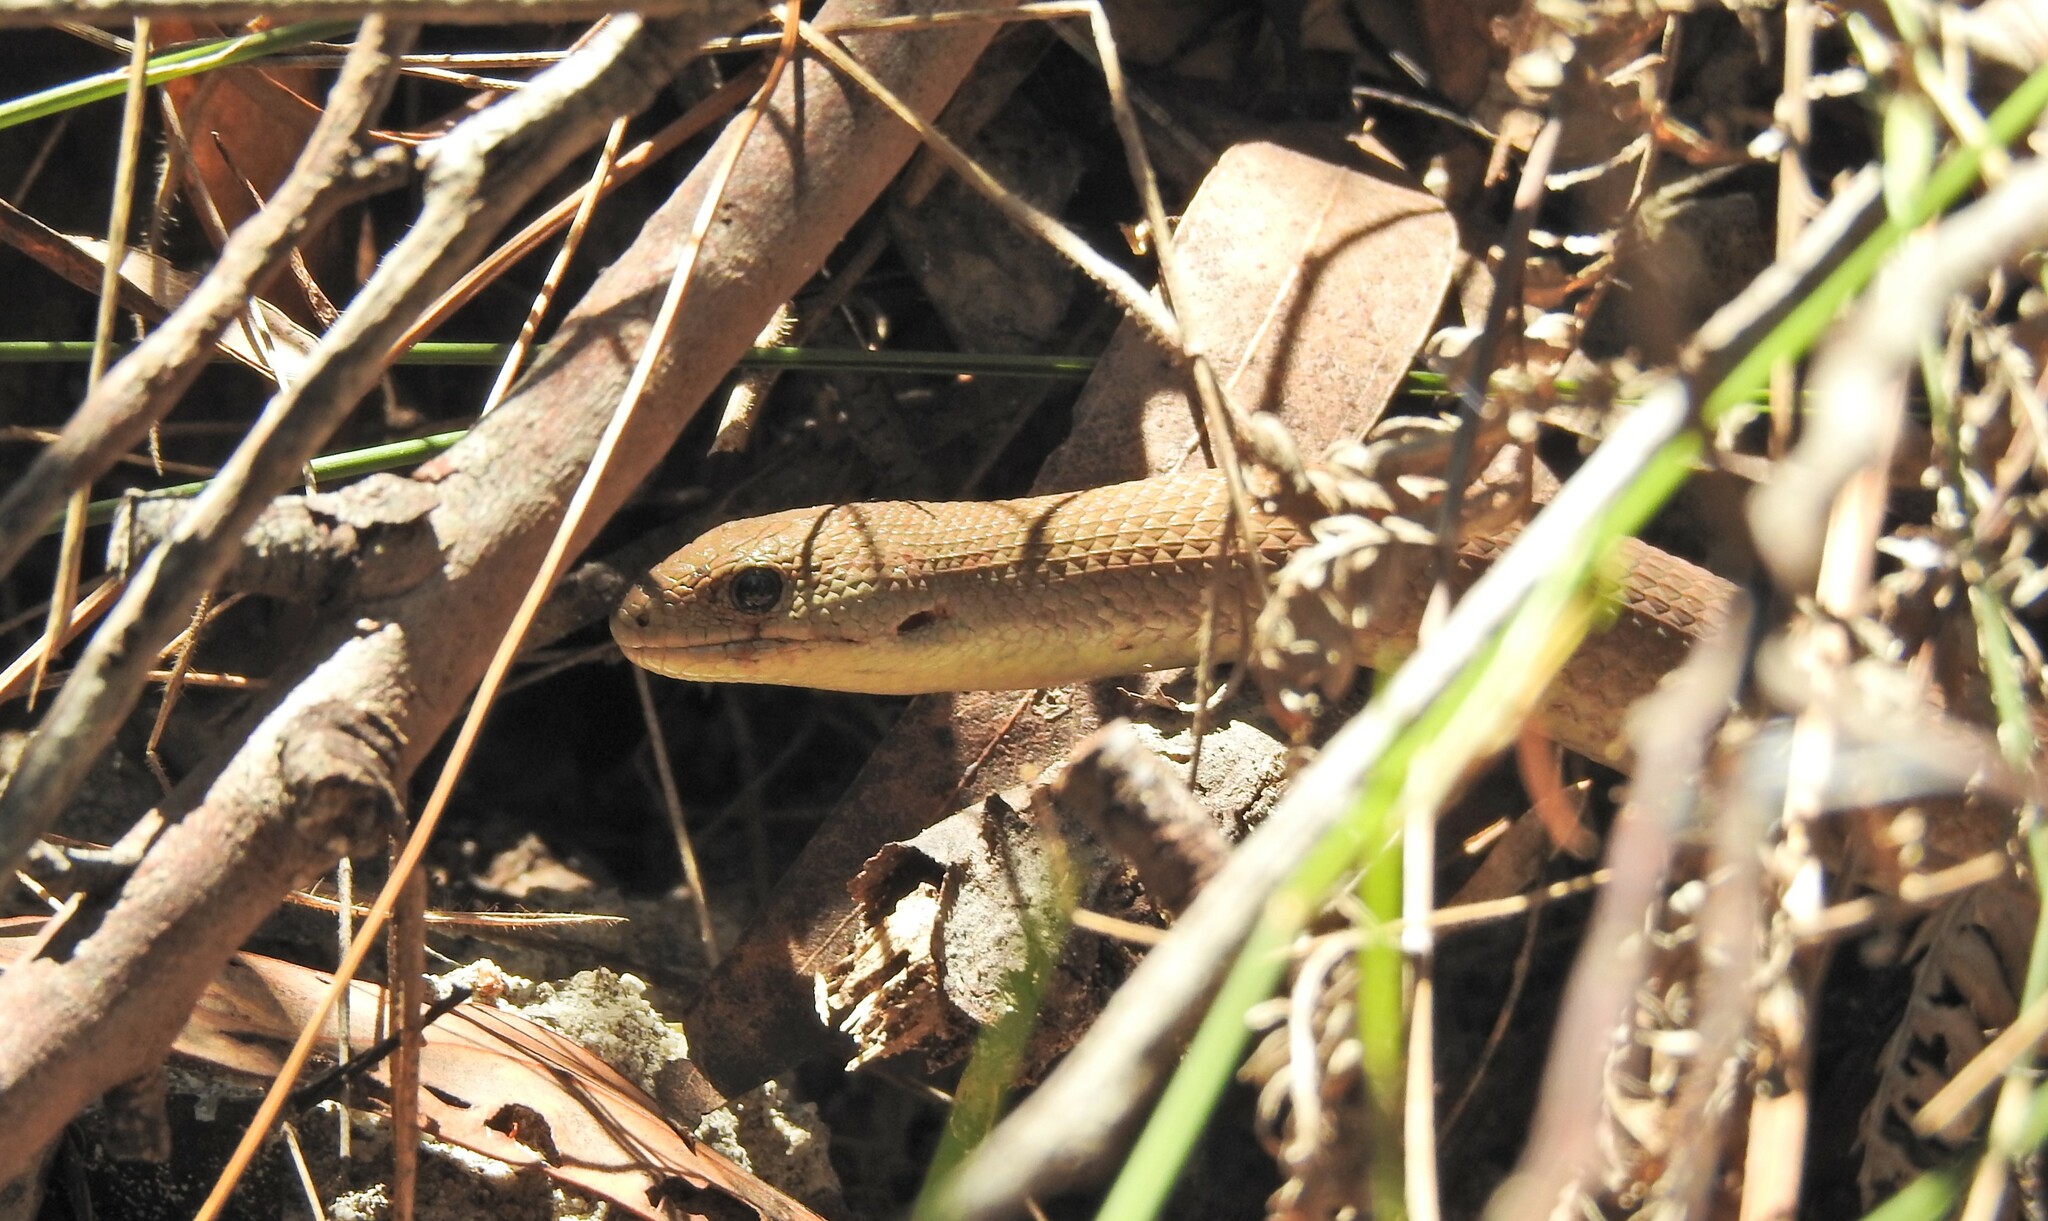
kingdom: Animalia
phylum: Chordata
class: Squamata
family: Pygopodidae
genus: Pygopus
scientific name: Pygopus lepidopodus
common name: Southern scaly-foot
